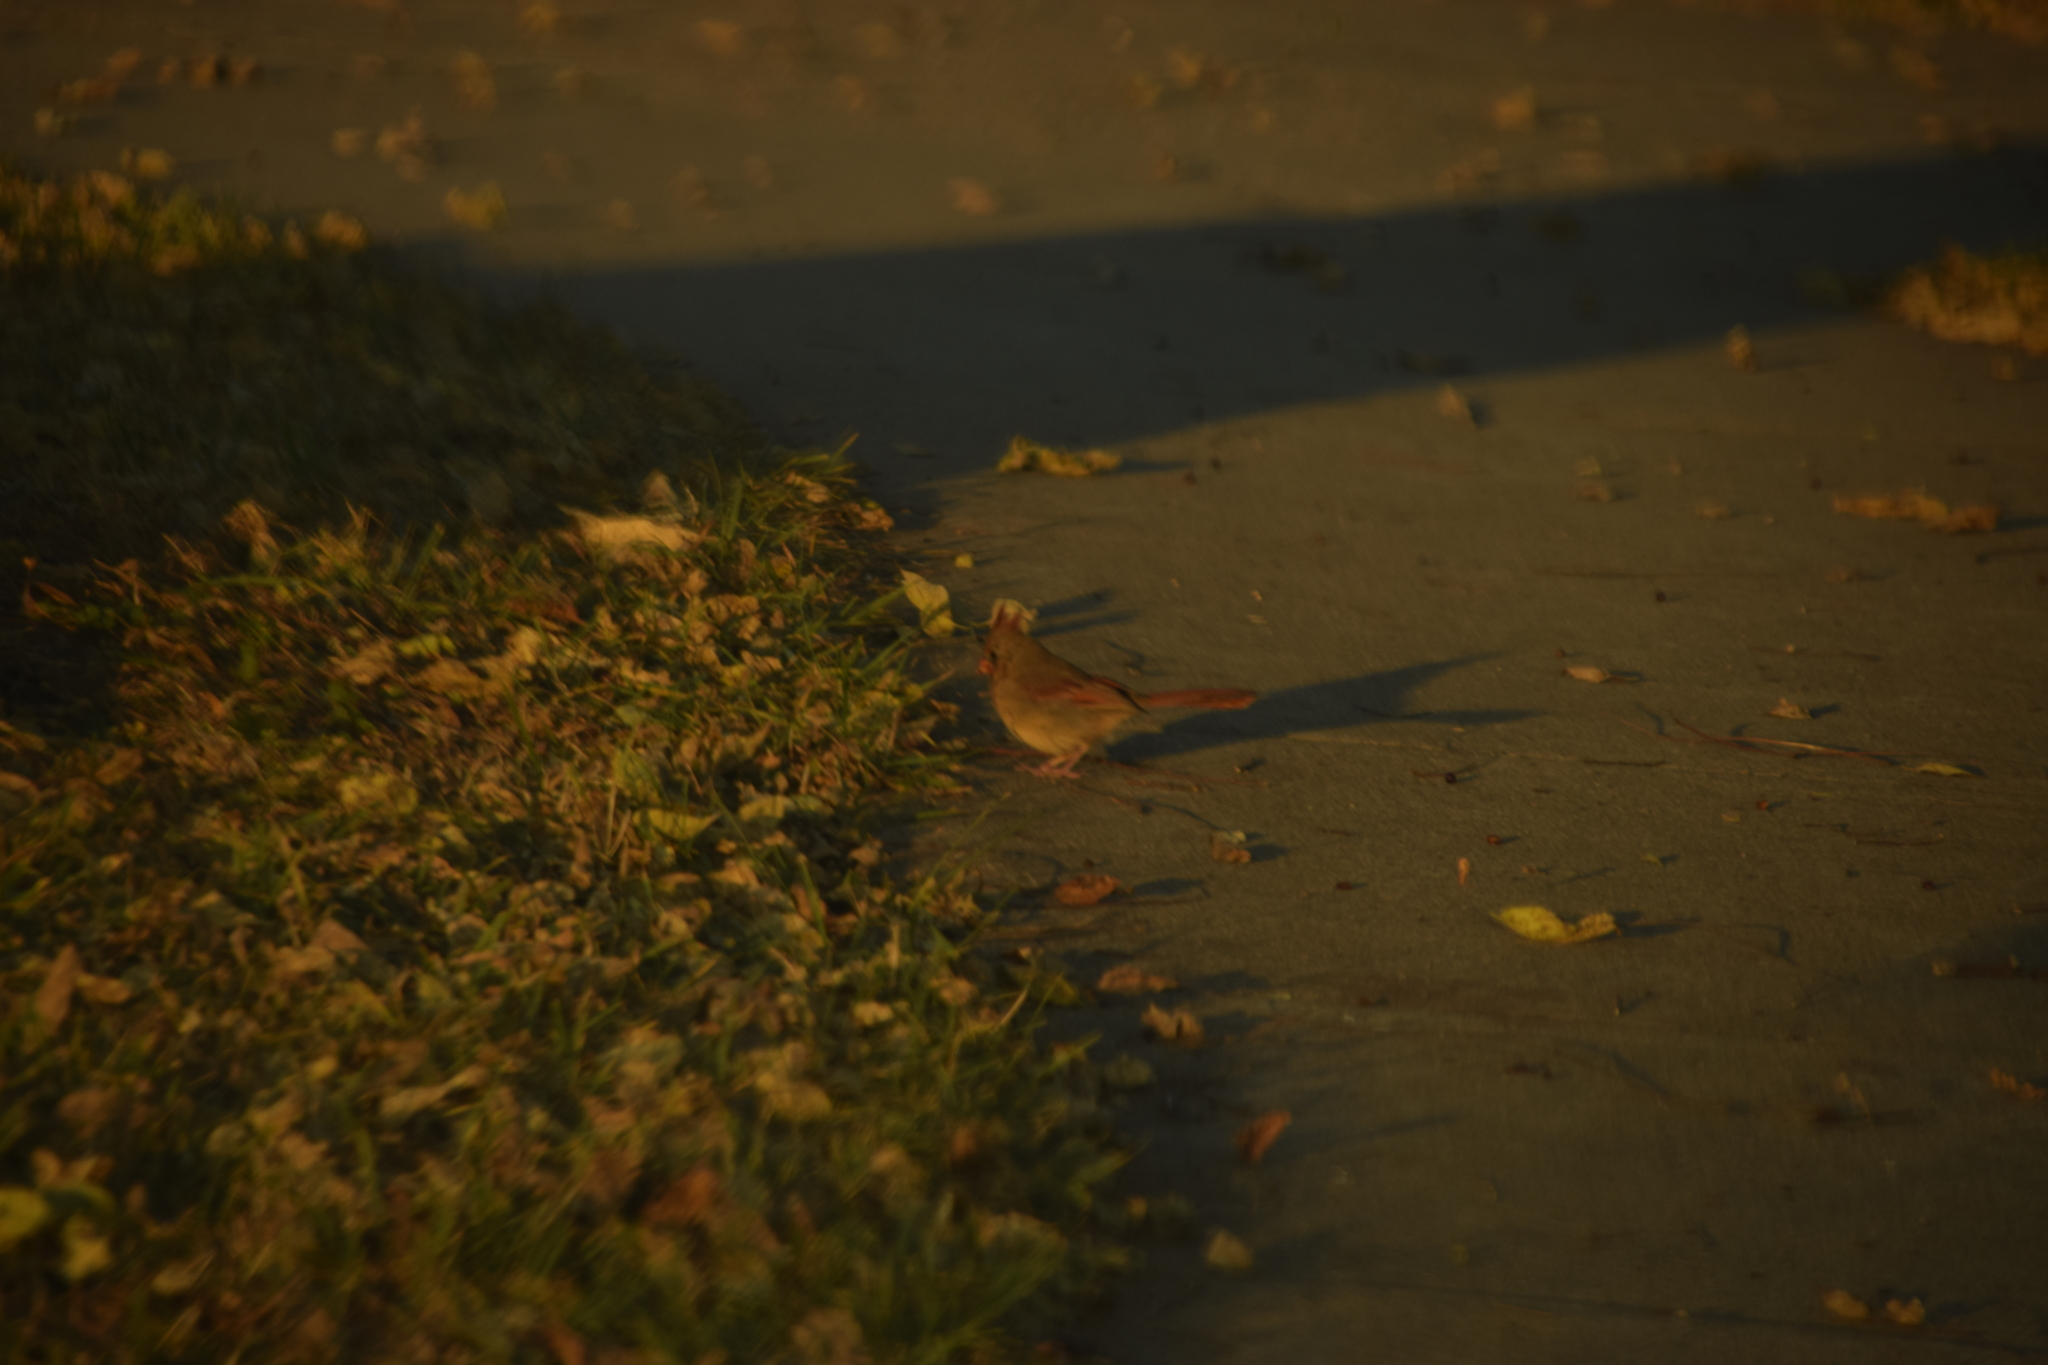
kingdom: Animalia
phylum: Chordata
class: Aves
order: Passeriformes
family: Cardinalidae
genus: Cardinalis
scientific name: Cardinalis cardinalis
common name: Northern cardinal
